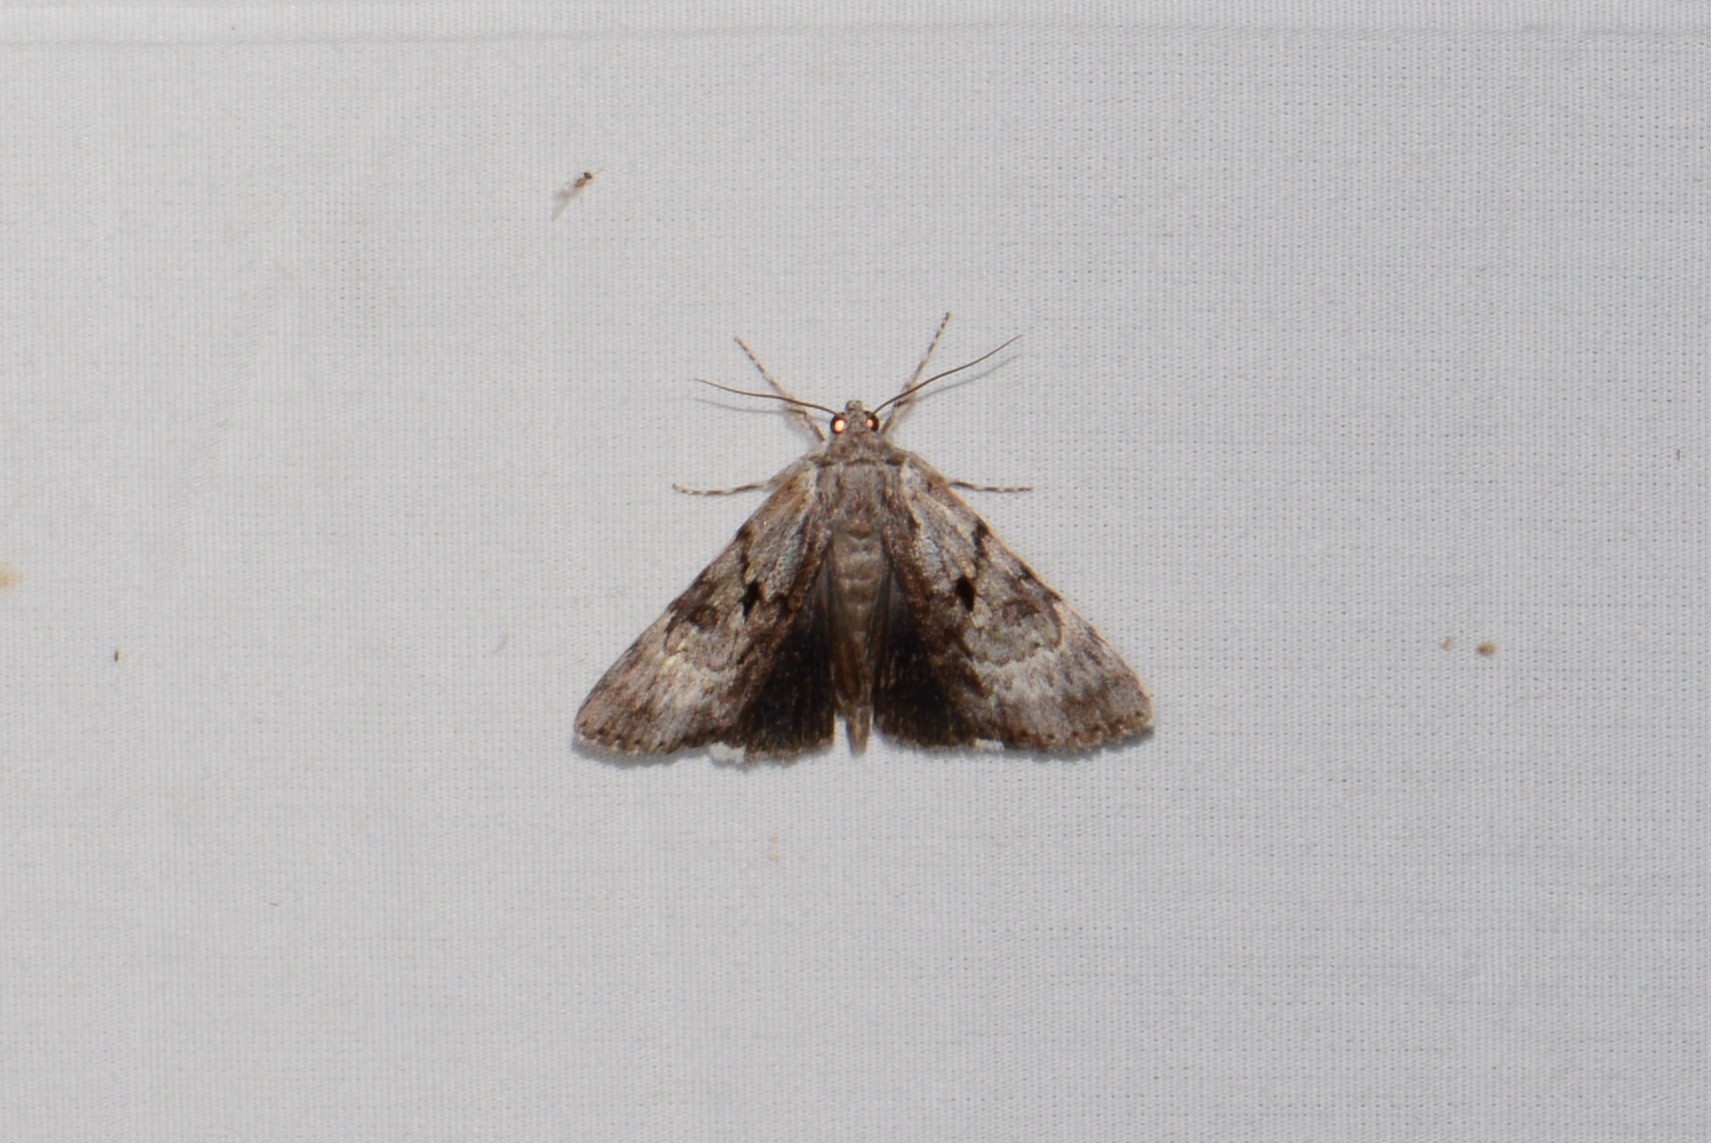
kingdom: Animalia
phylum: Arthropoda
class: Insecta
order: Lepidoptera
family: Erebidae
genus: Catocala
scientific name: Catocala andromedae
